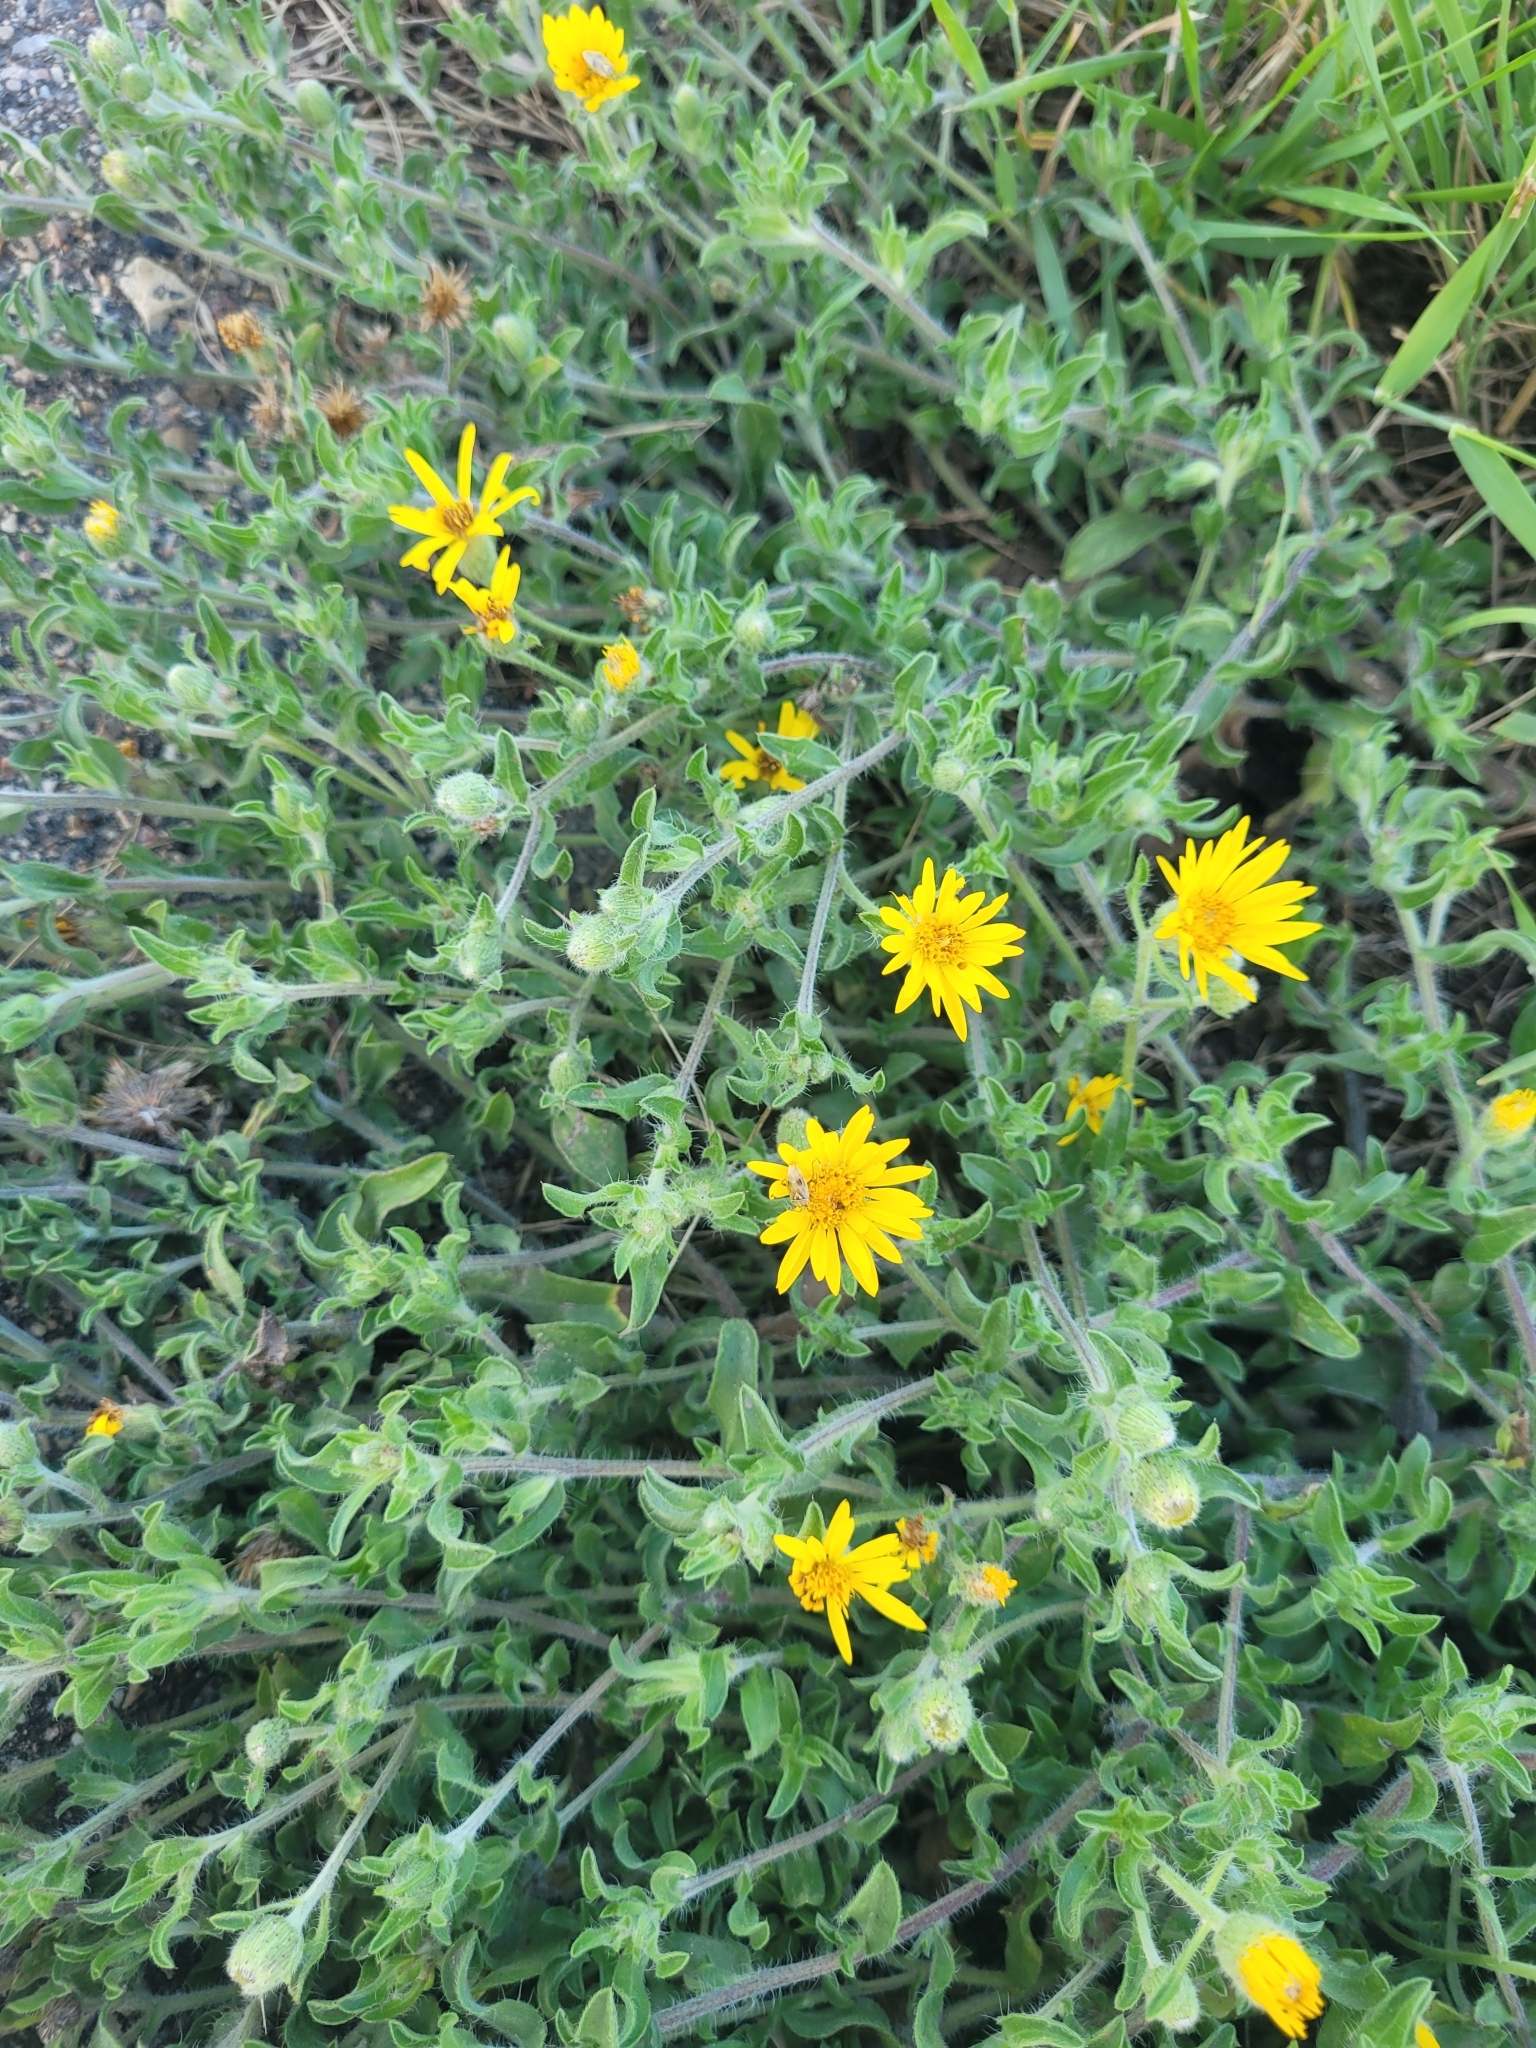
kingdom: Plantae
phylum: Tracheophyta
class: Magnoliopsida
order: Asterales
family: Asteraceae
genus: Heterotheca
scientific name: Heterotheca villosa
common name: Hairy false goldenaster
